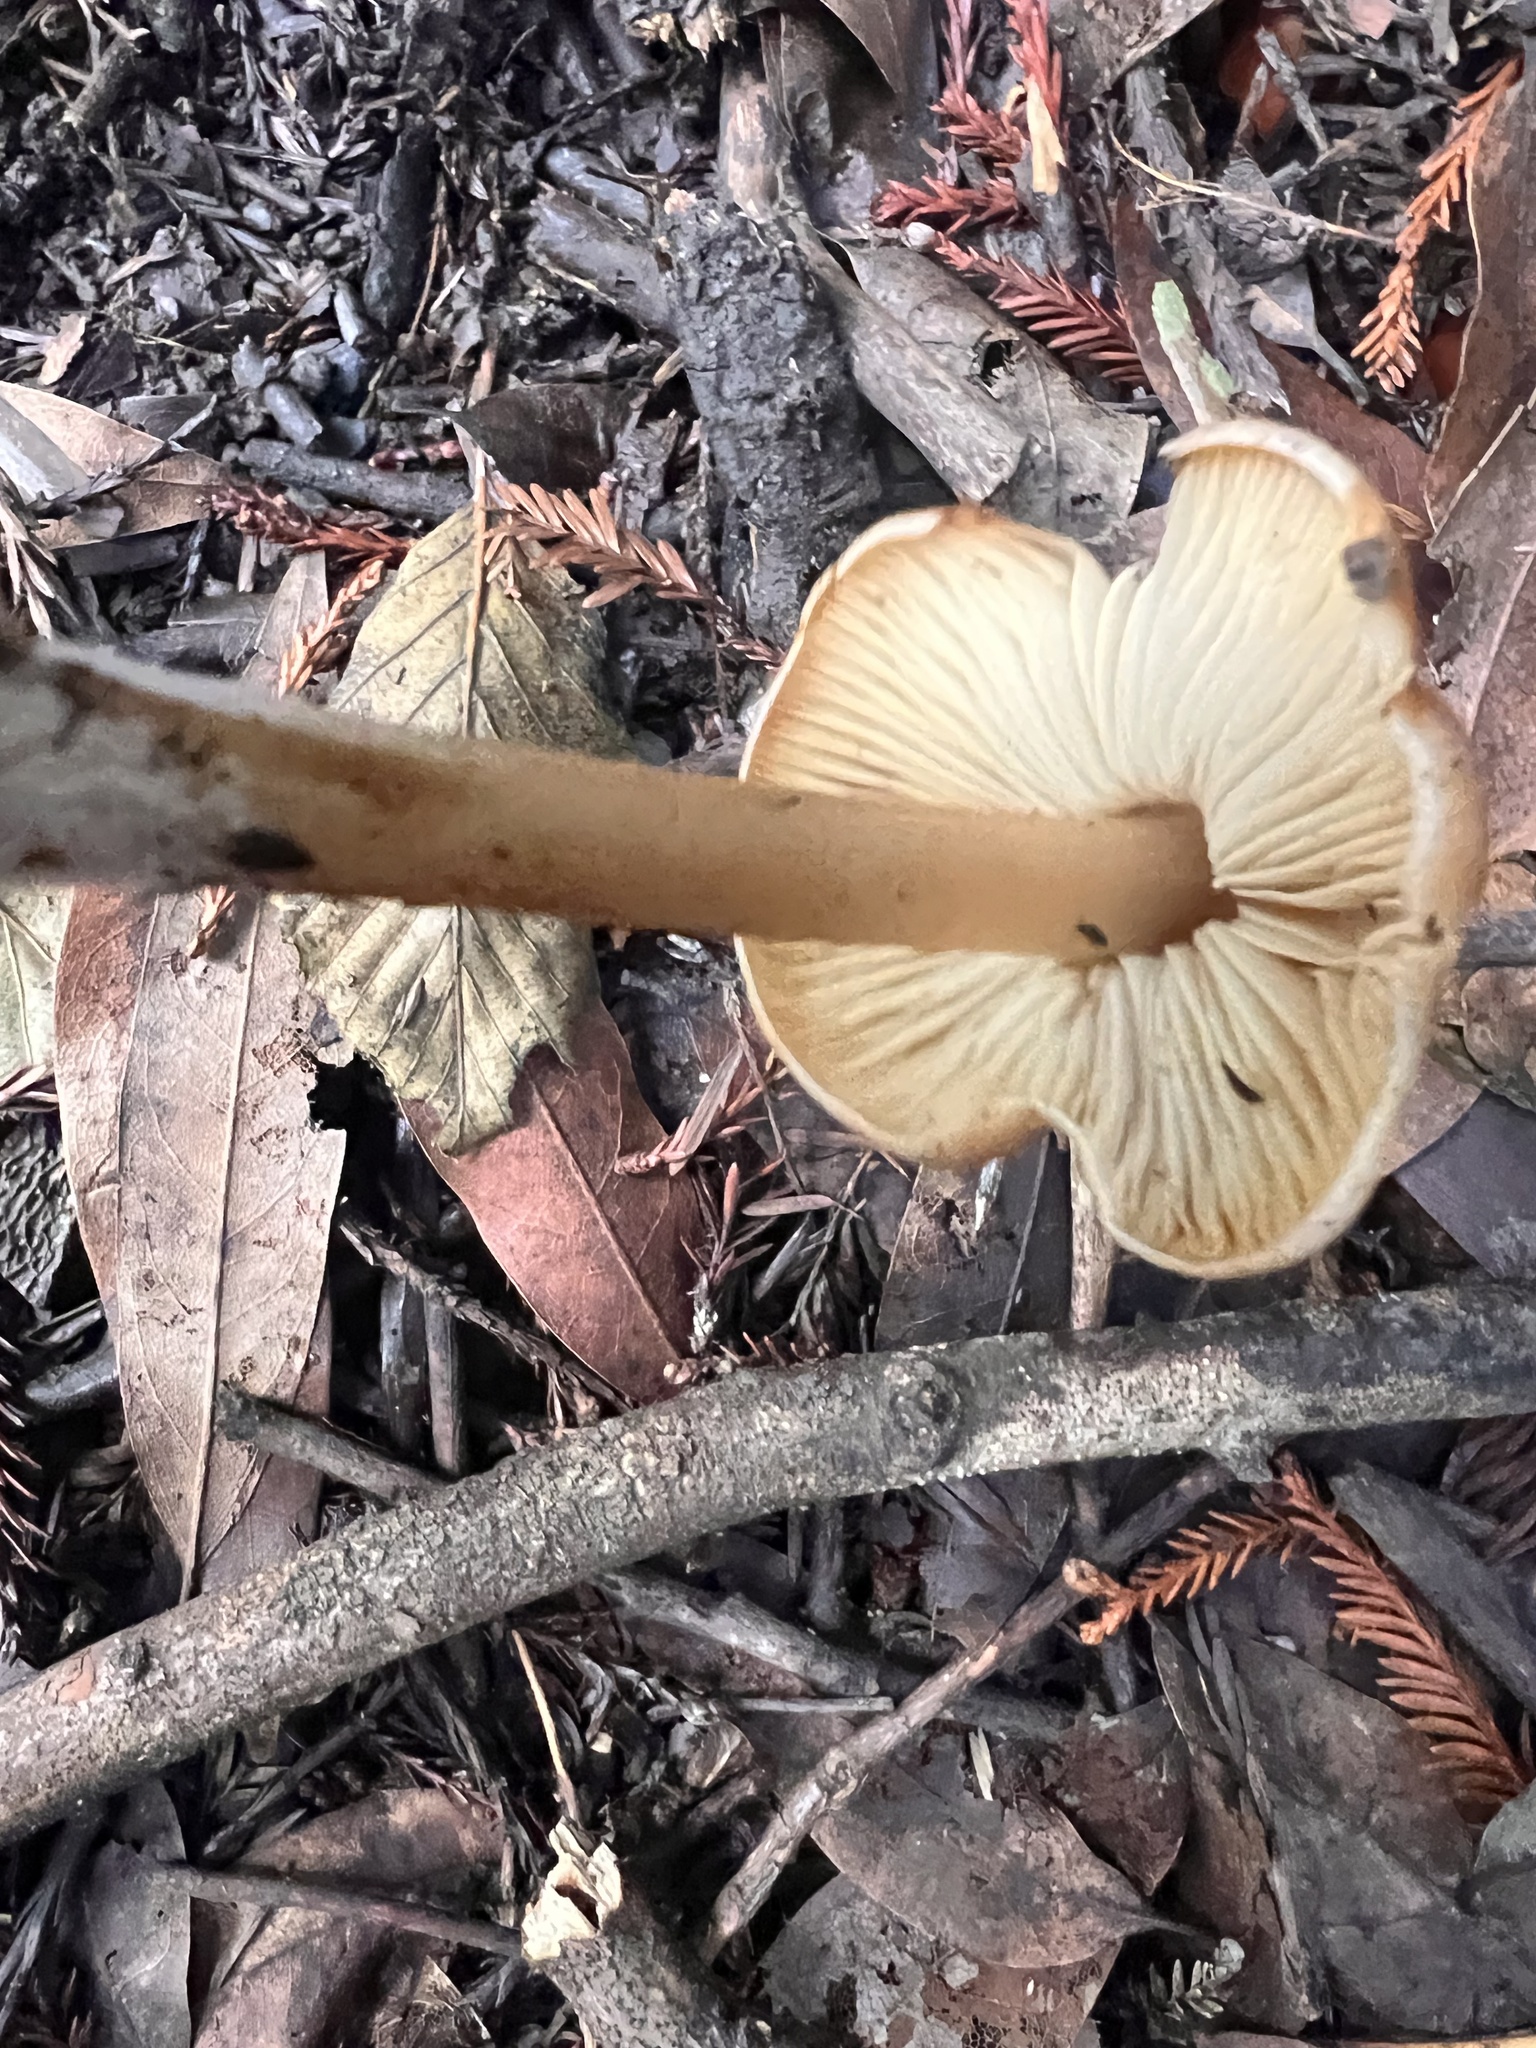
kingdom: Fungi
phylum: Basidiomycota
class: Agaricomycetes
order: Agaricales
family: Tricholomataceae
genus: Caulorhiza
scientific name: Caulorhiza umbonata
